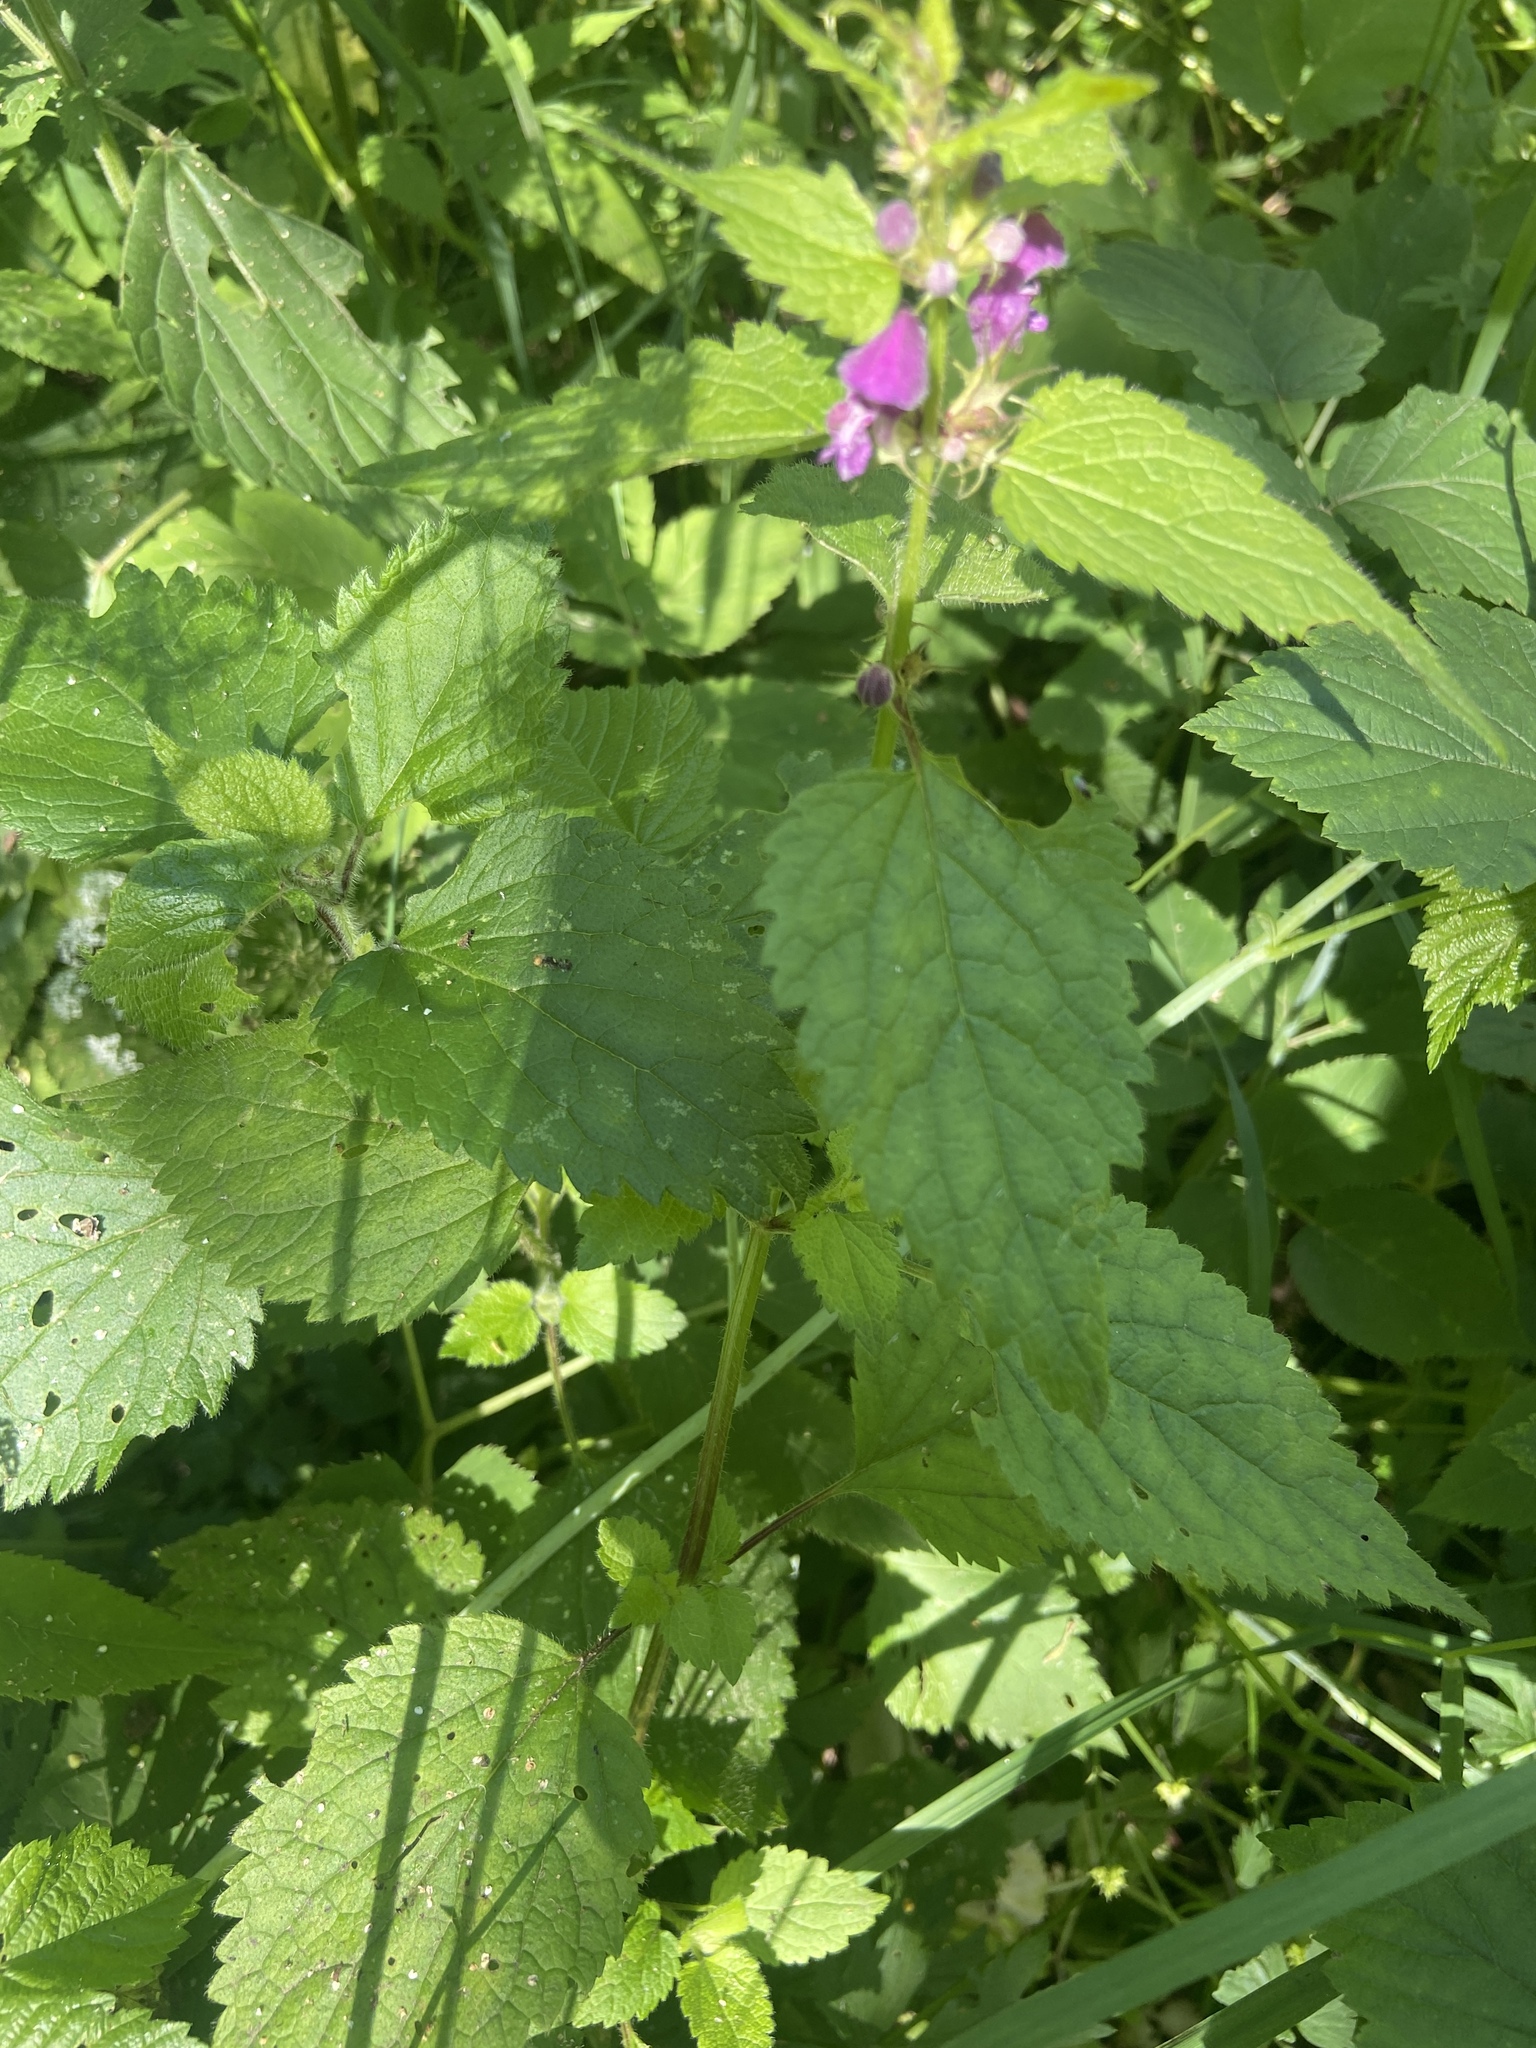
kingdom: Plantae
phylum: Tracheophyta
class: Magnoliopsida
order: Lamiales
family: Lamiaceae
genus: Lamium
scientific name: Lamium maculatum
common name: Spotted dead-nettle
